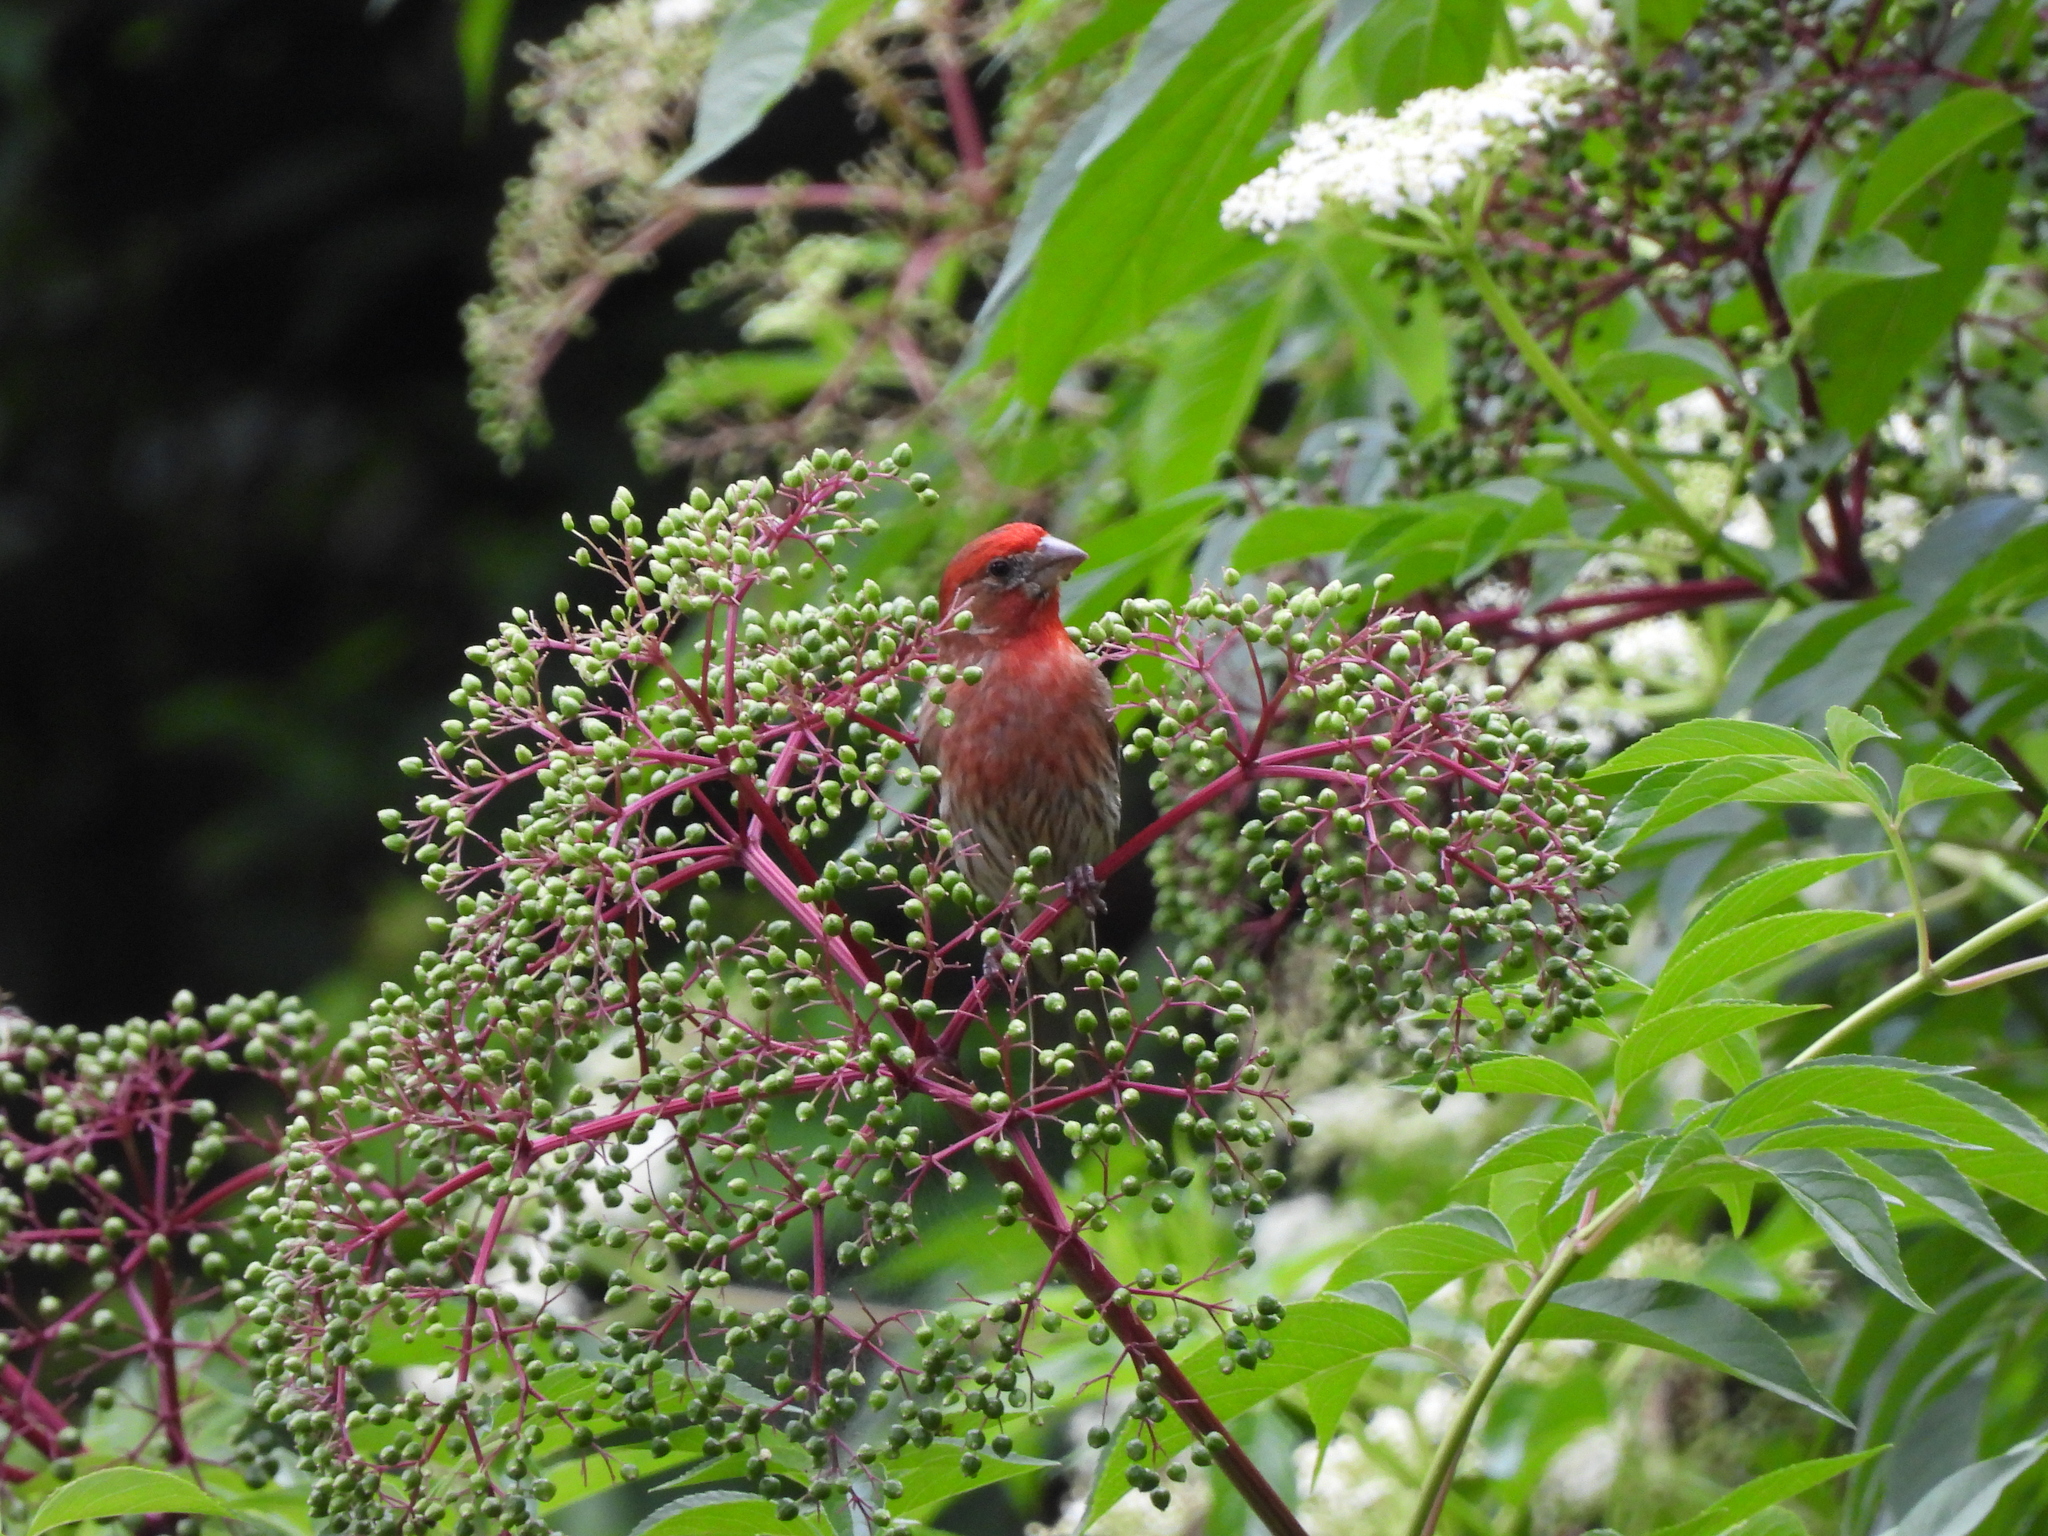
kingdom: Animalia
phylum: Chordata
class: Aves
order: Passeriformes
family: Fringillidae
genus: Haemorhous
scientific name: Haemorhous mexicanus
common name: House finch
